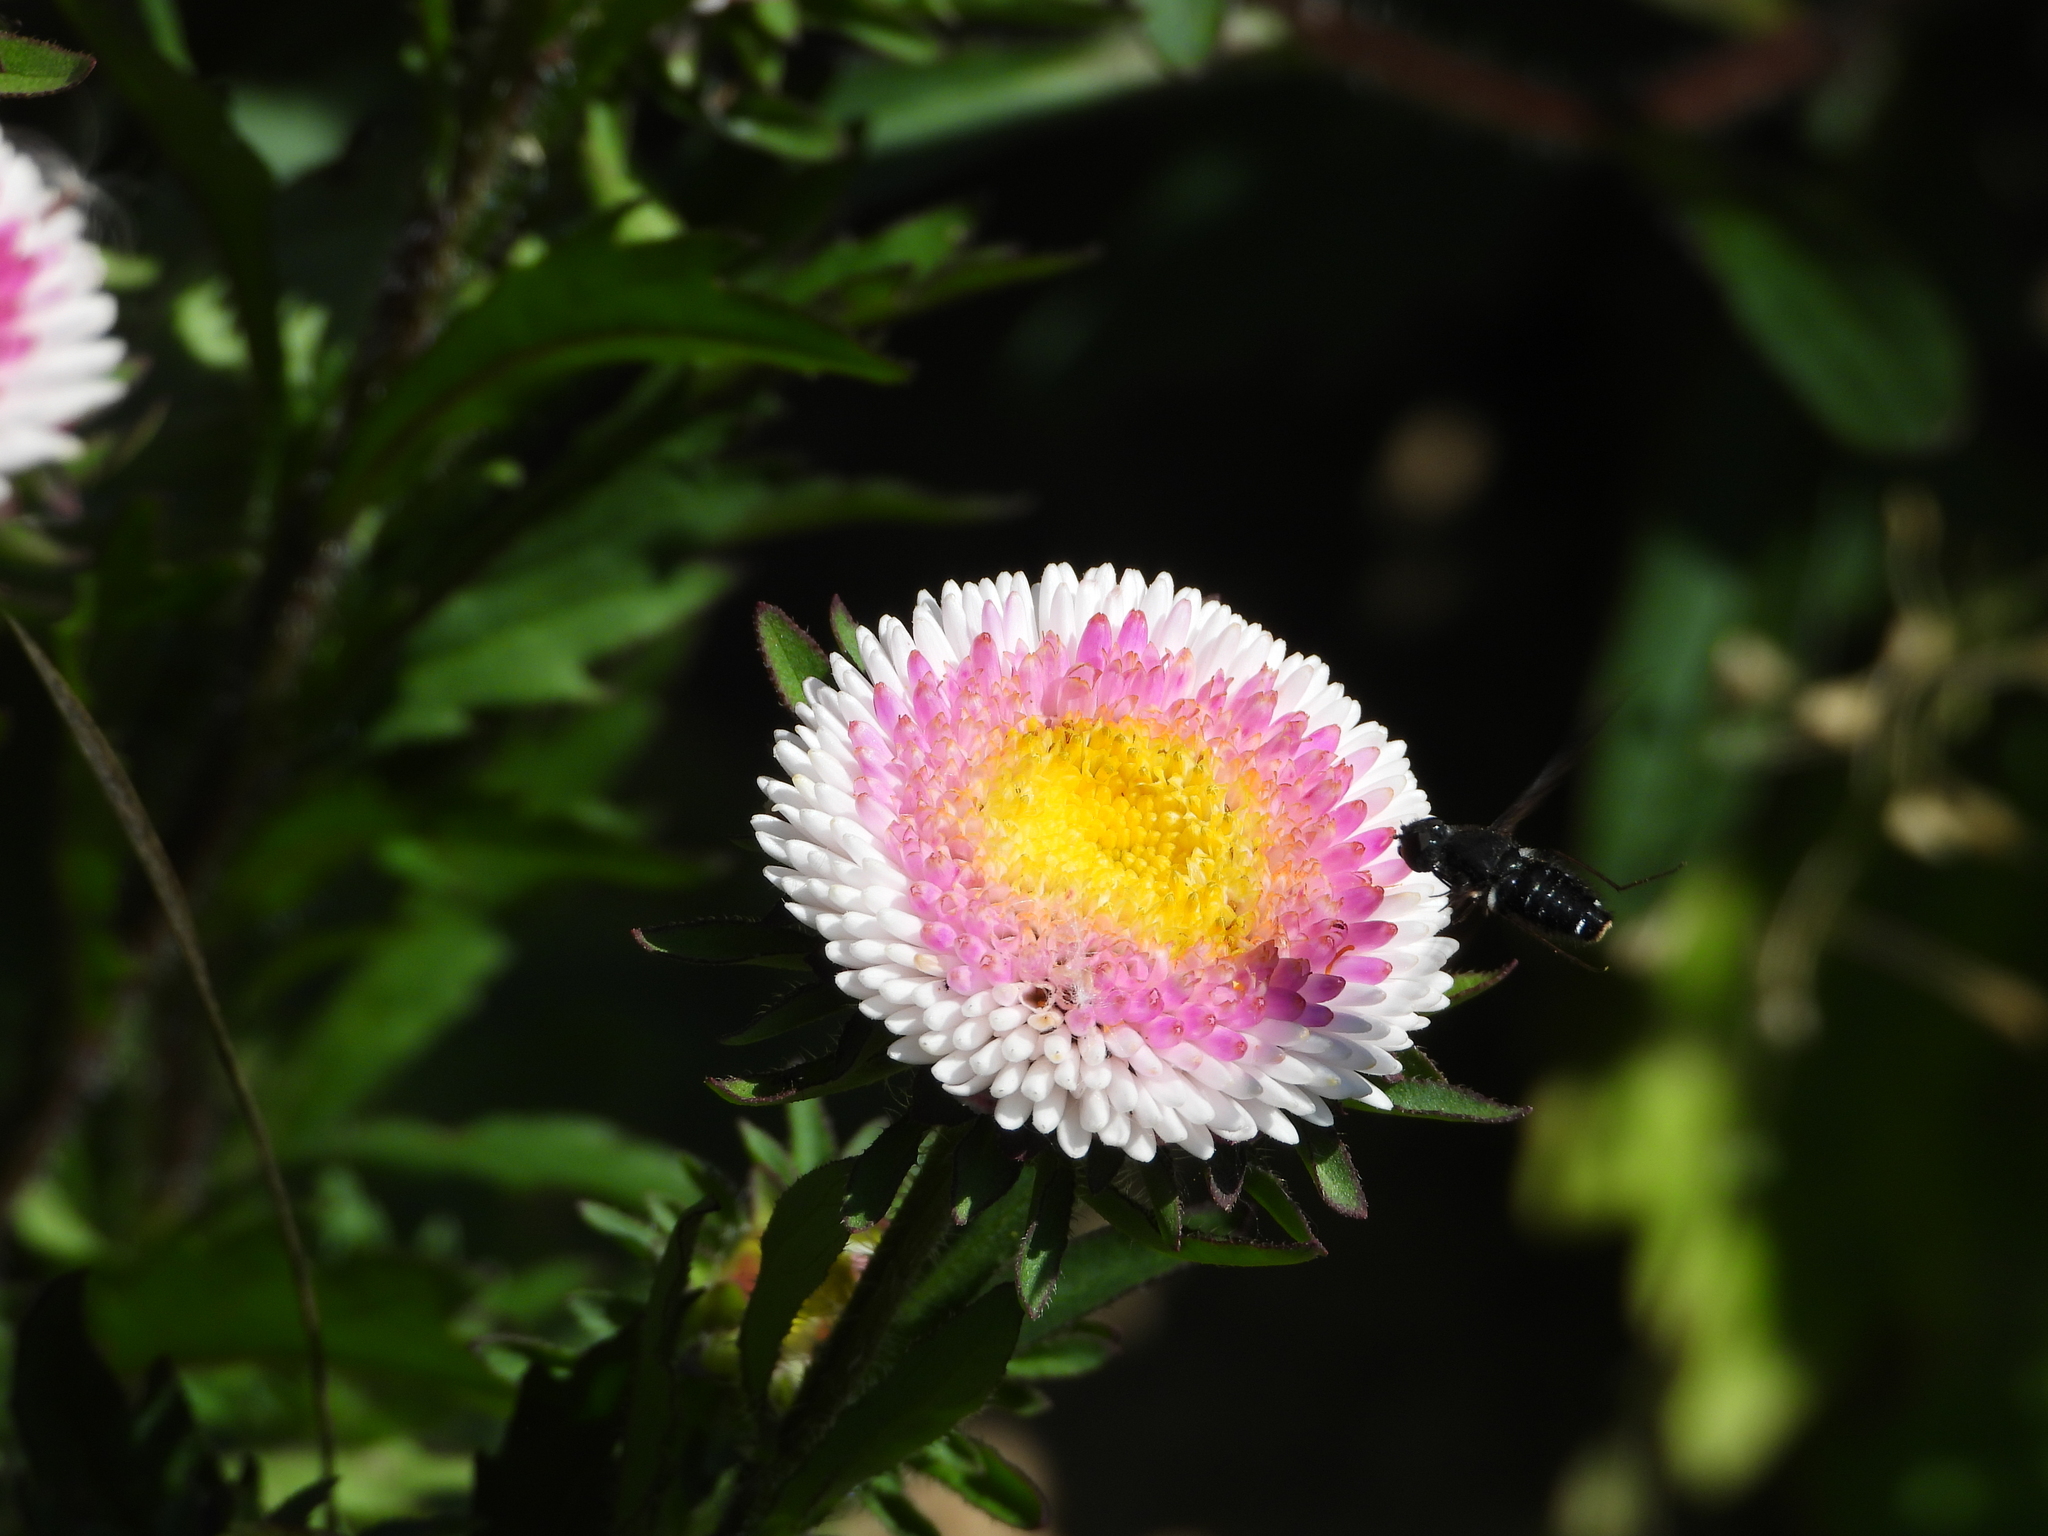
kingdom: Animalia
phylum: Arthropoda
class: Insecta
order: Diptera
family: Bombyliidae
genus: Anthrax
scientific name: Anthrax anthrax
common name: Anthracite bee-fly
